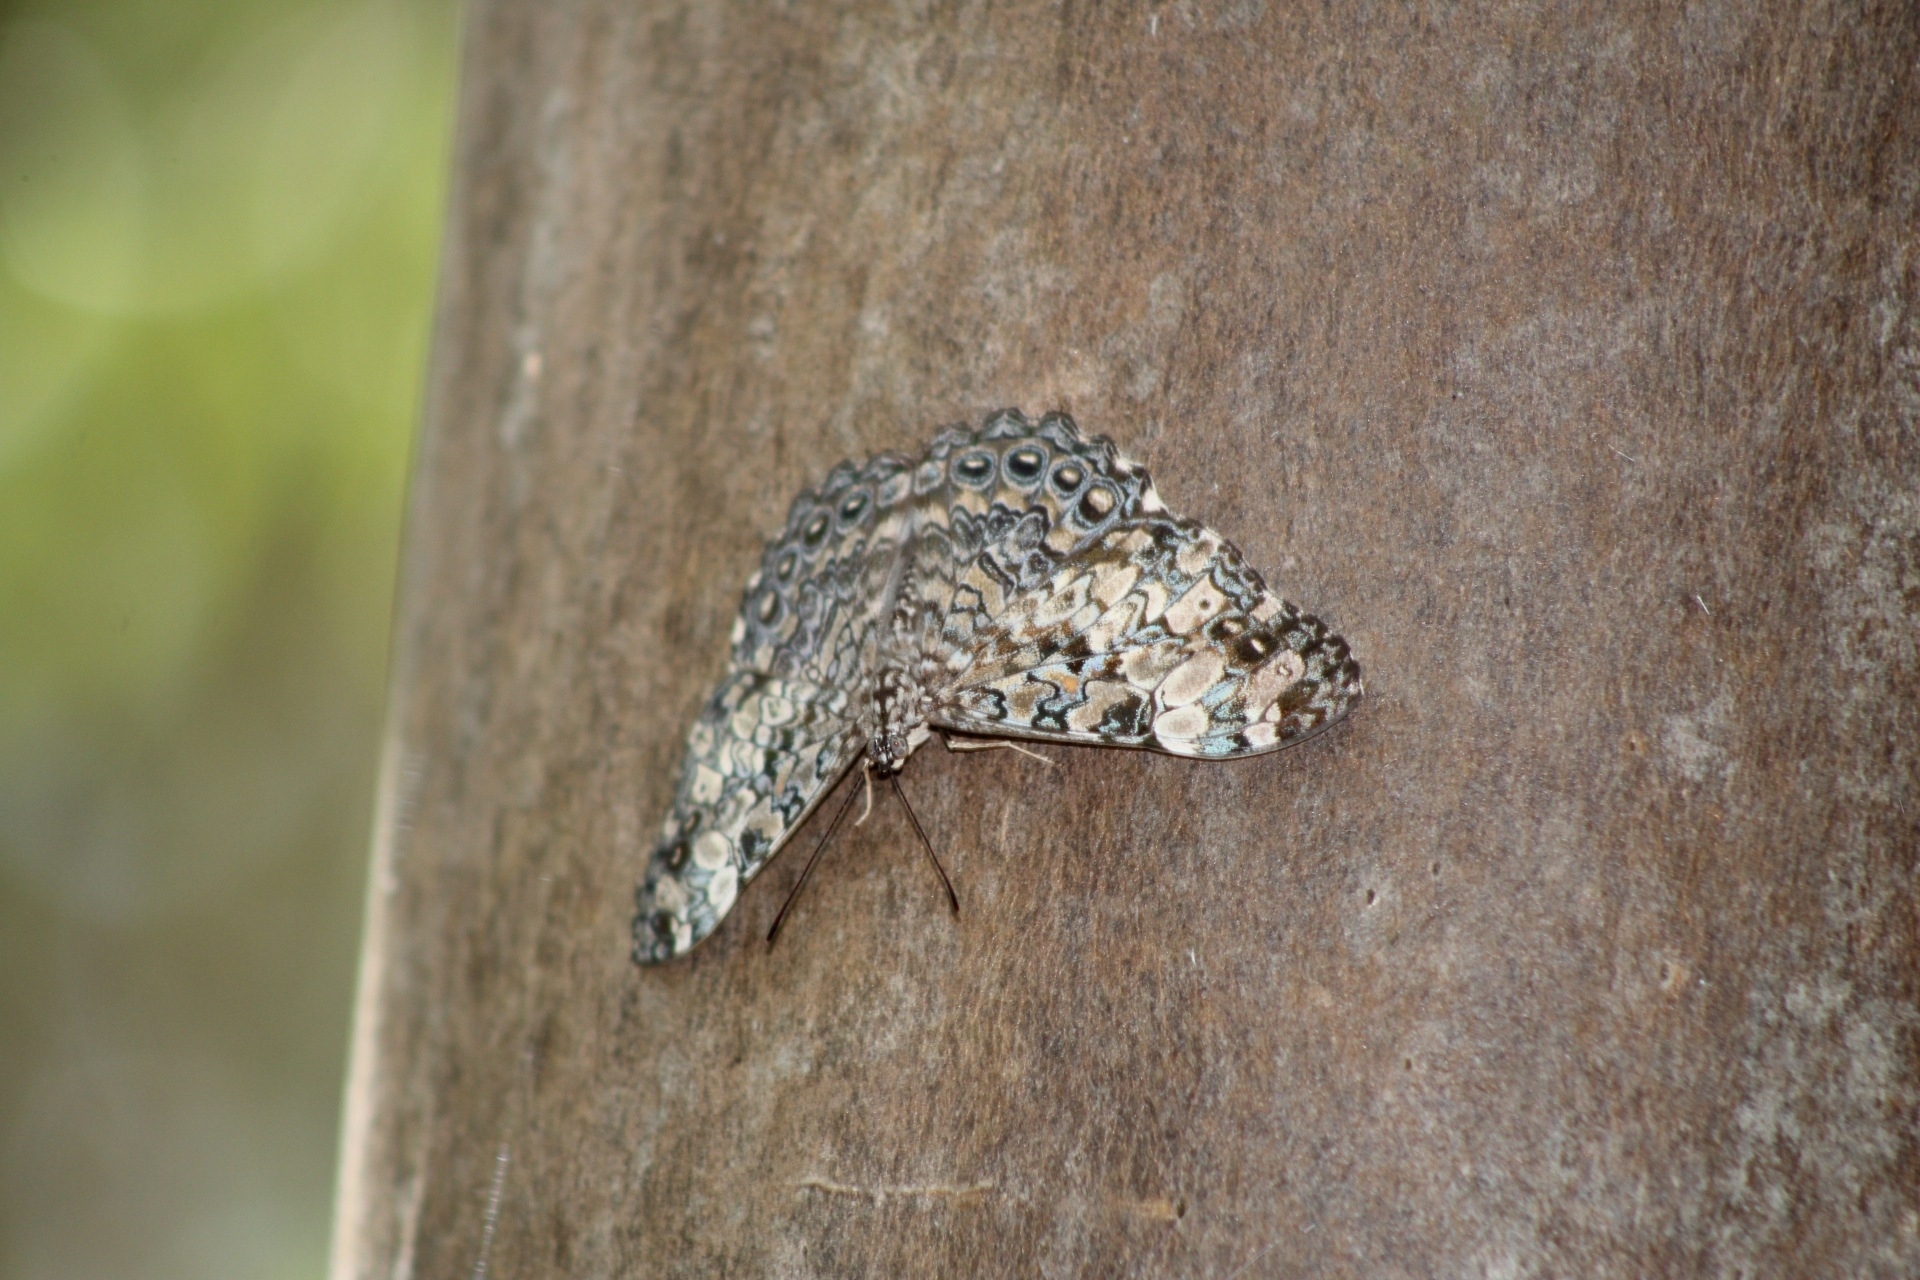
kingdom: Animalia
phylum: Arthropoda
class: Insecta
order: Lepidoptera
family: Nymphalidae
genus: Hamadryas
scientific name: Hamadryas epinome
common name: Epinome cracker
